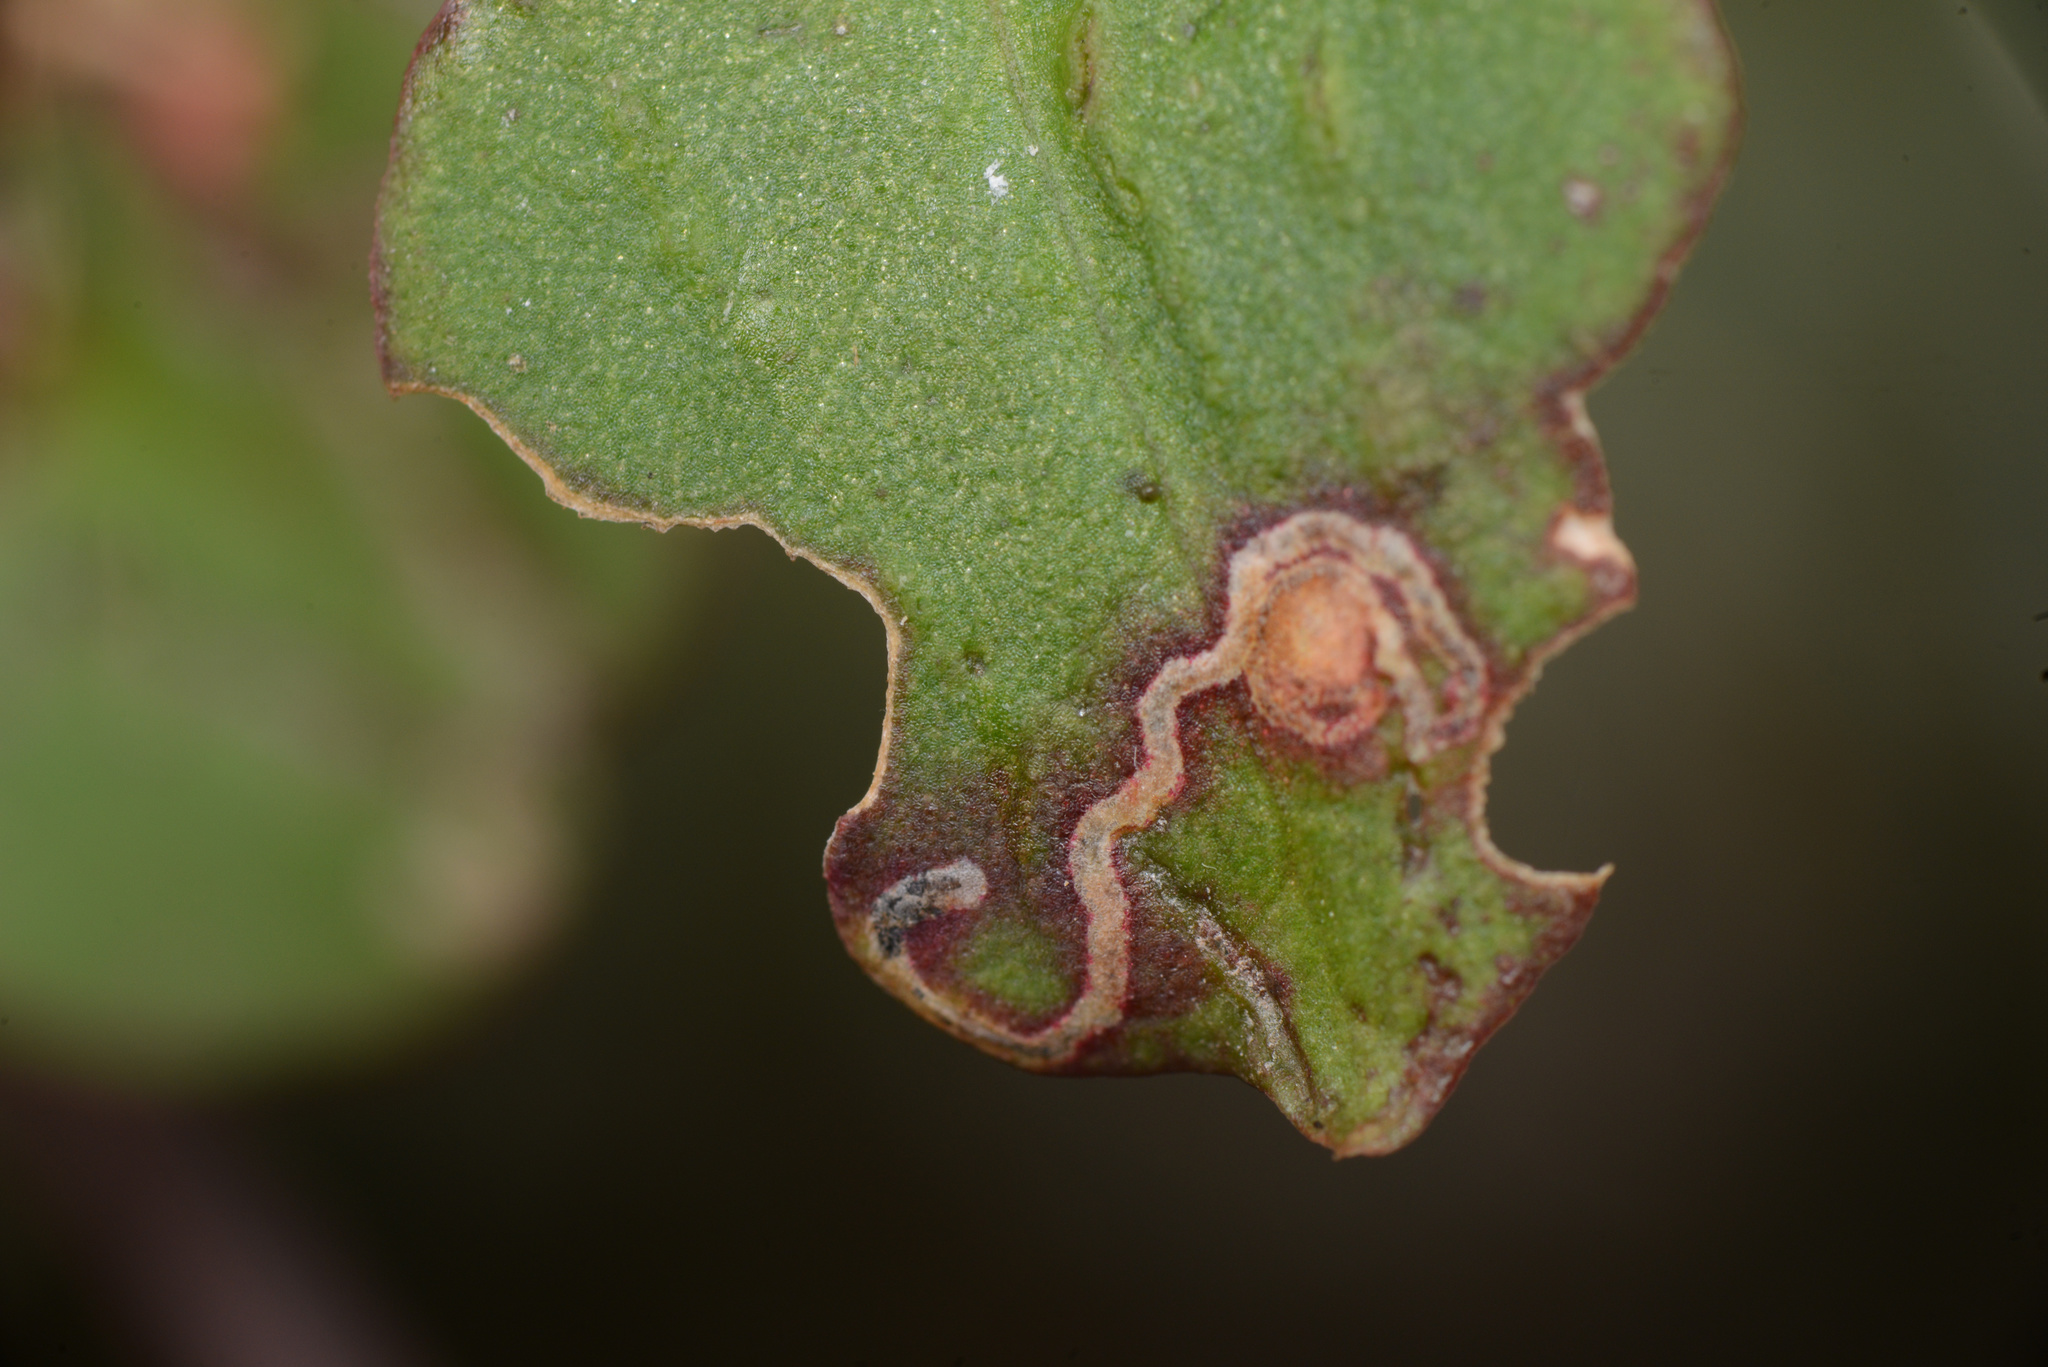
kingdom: Animalia
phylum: Arthropoda
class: Insecta
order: Lepidoptera
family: Momphidae
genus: Zapyrastra
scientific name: Zapyrastra calliphana
